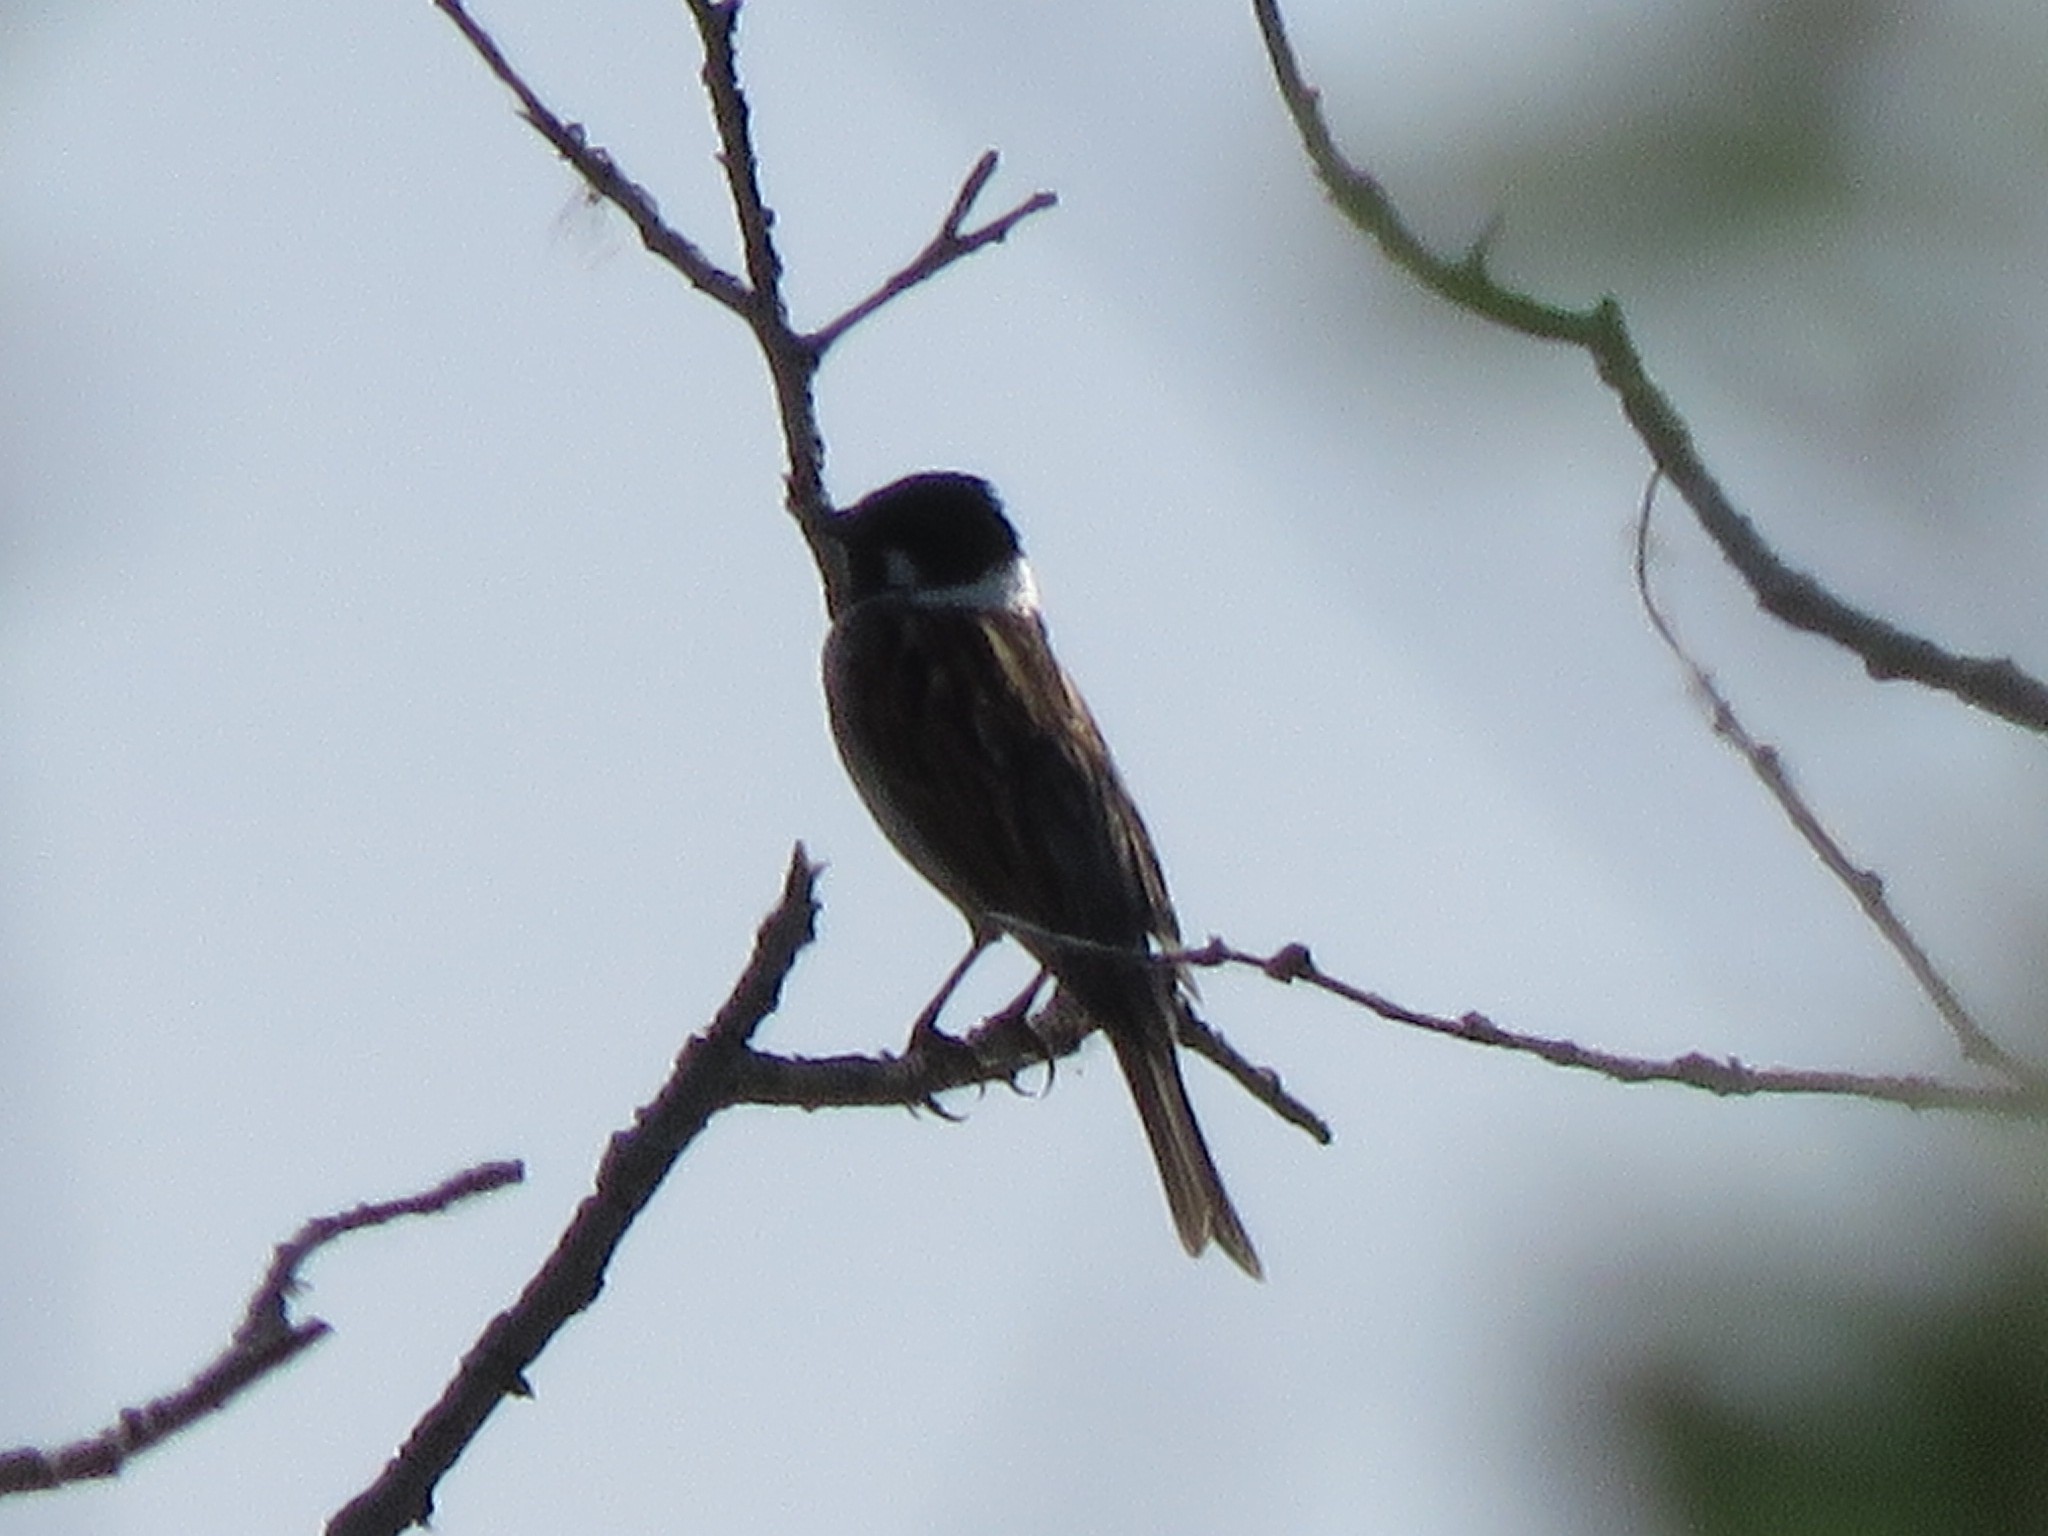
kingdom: Animalia
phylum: Chordata
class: Aves
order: Passeriformes
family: Emberizidae
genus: Emberiza
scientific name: Emberiza schoeniclus
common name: Reed bunting
